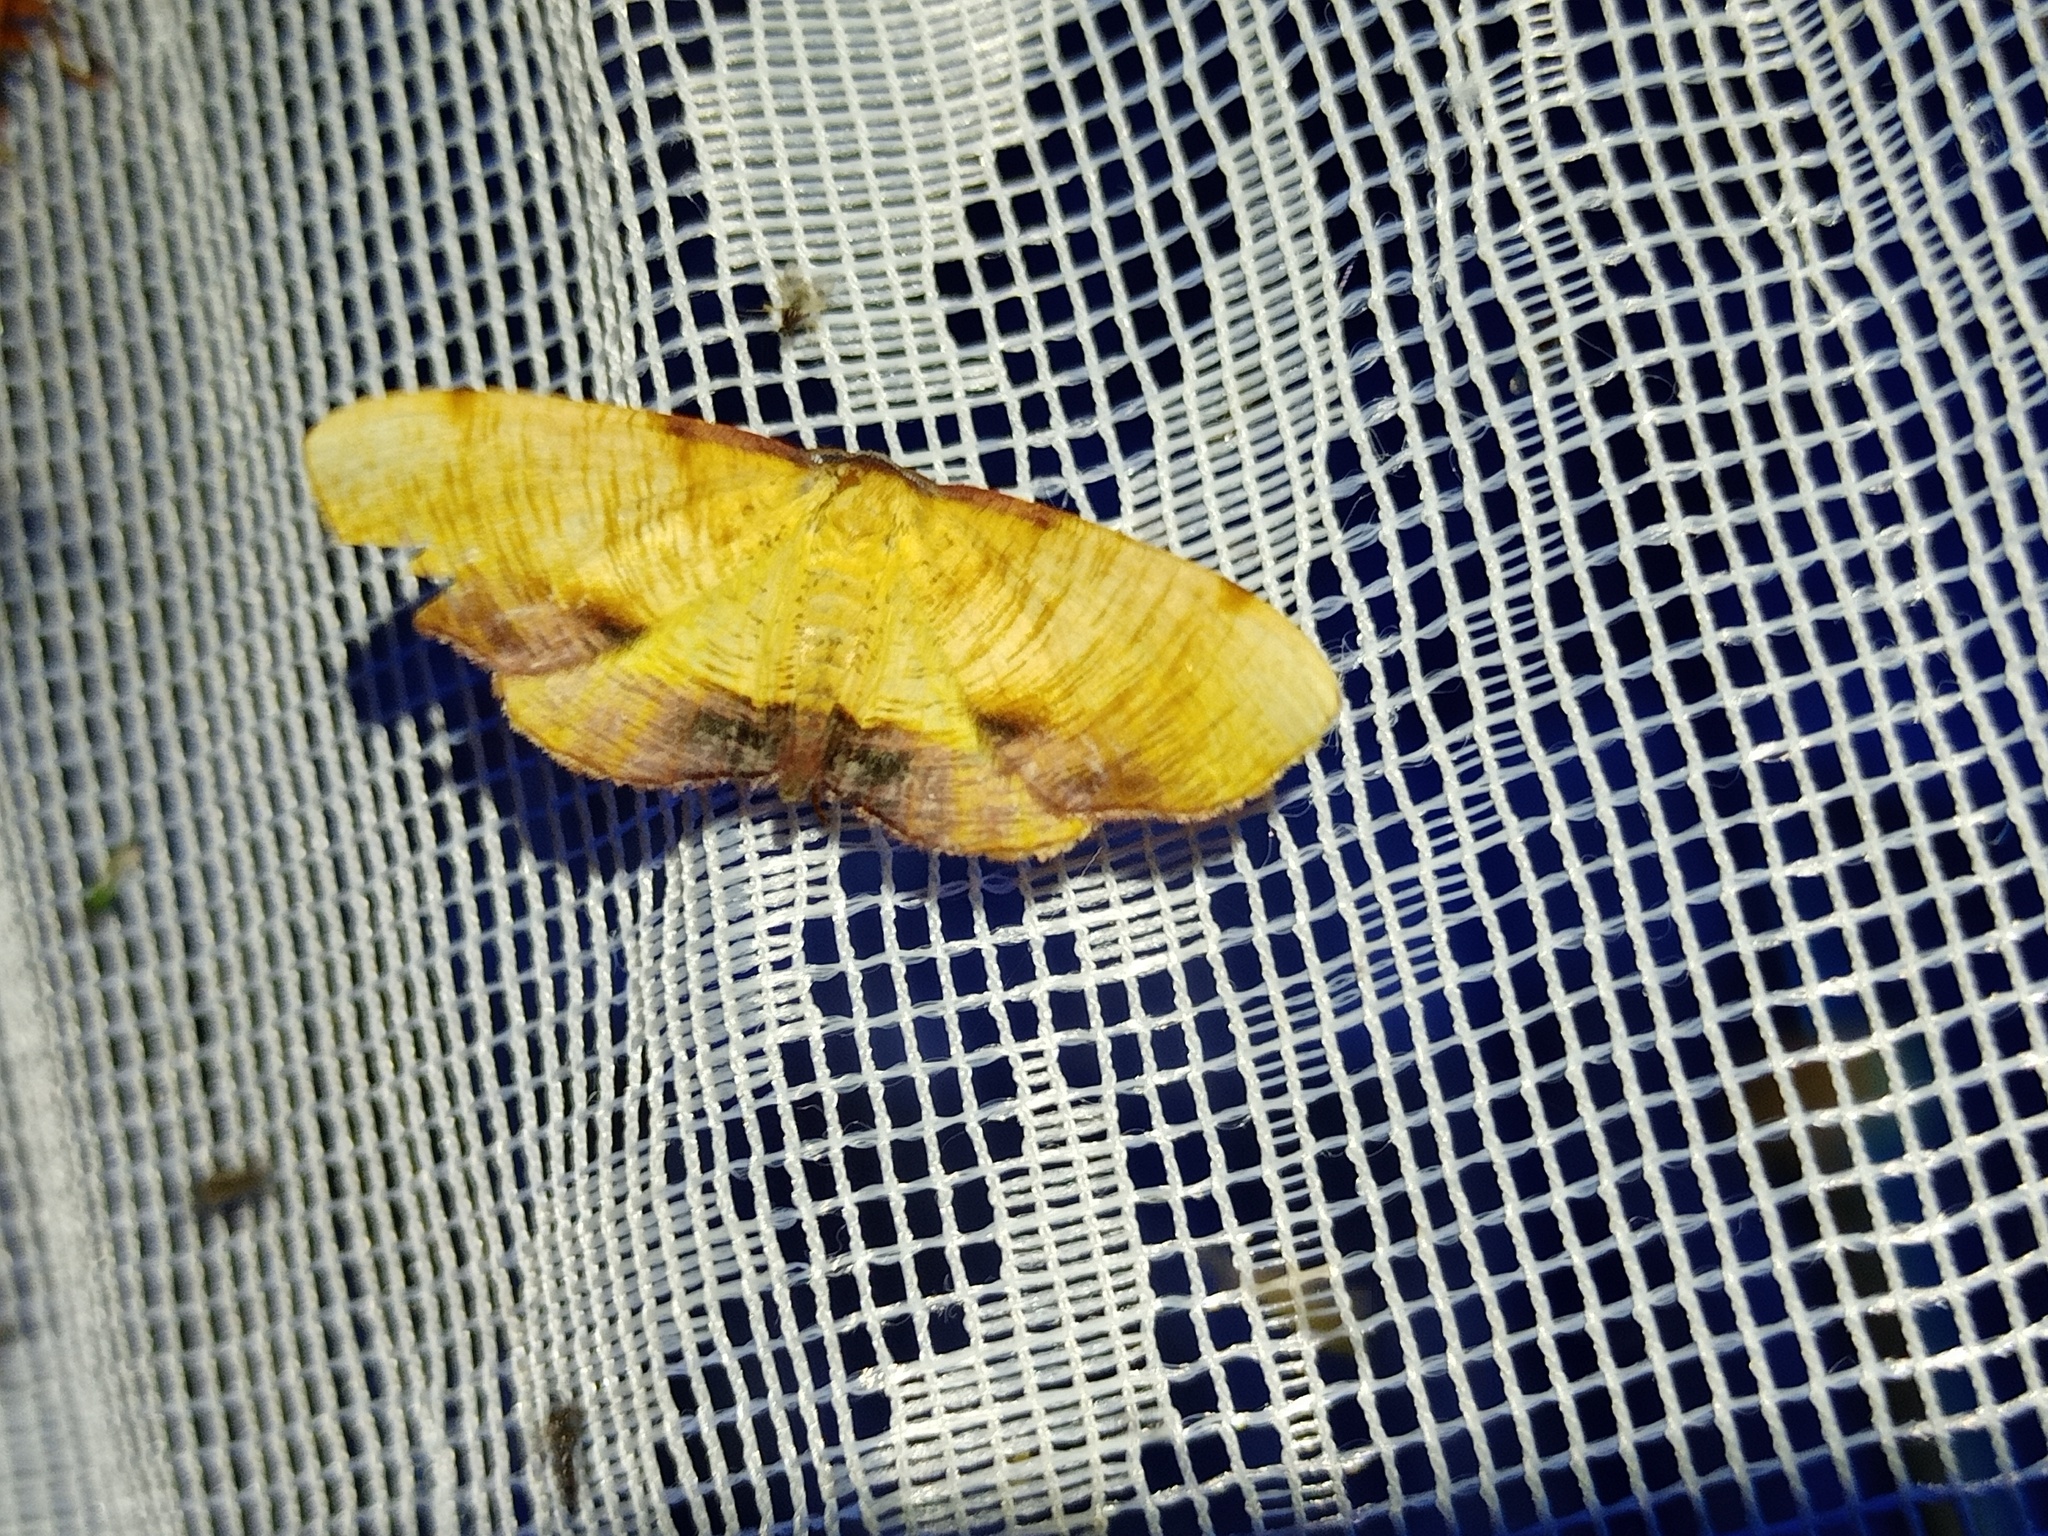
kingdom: Animalia
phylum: Arthropoda
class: Insecta
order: Lepidoptera
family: Geometridae
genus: Plagodis
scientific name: Plagodis dolabraria
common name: Scorched wing
